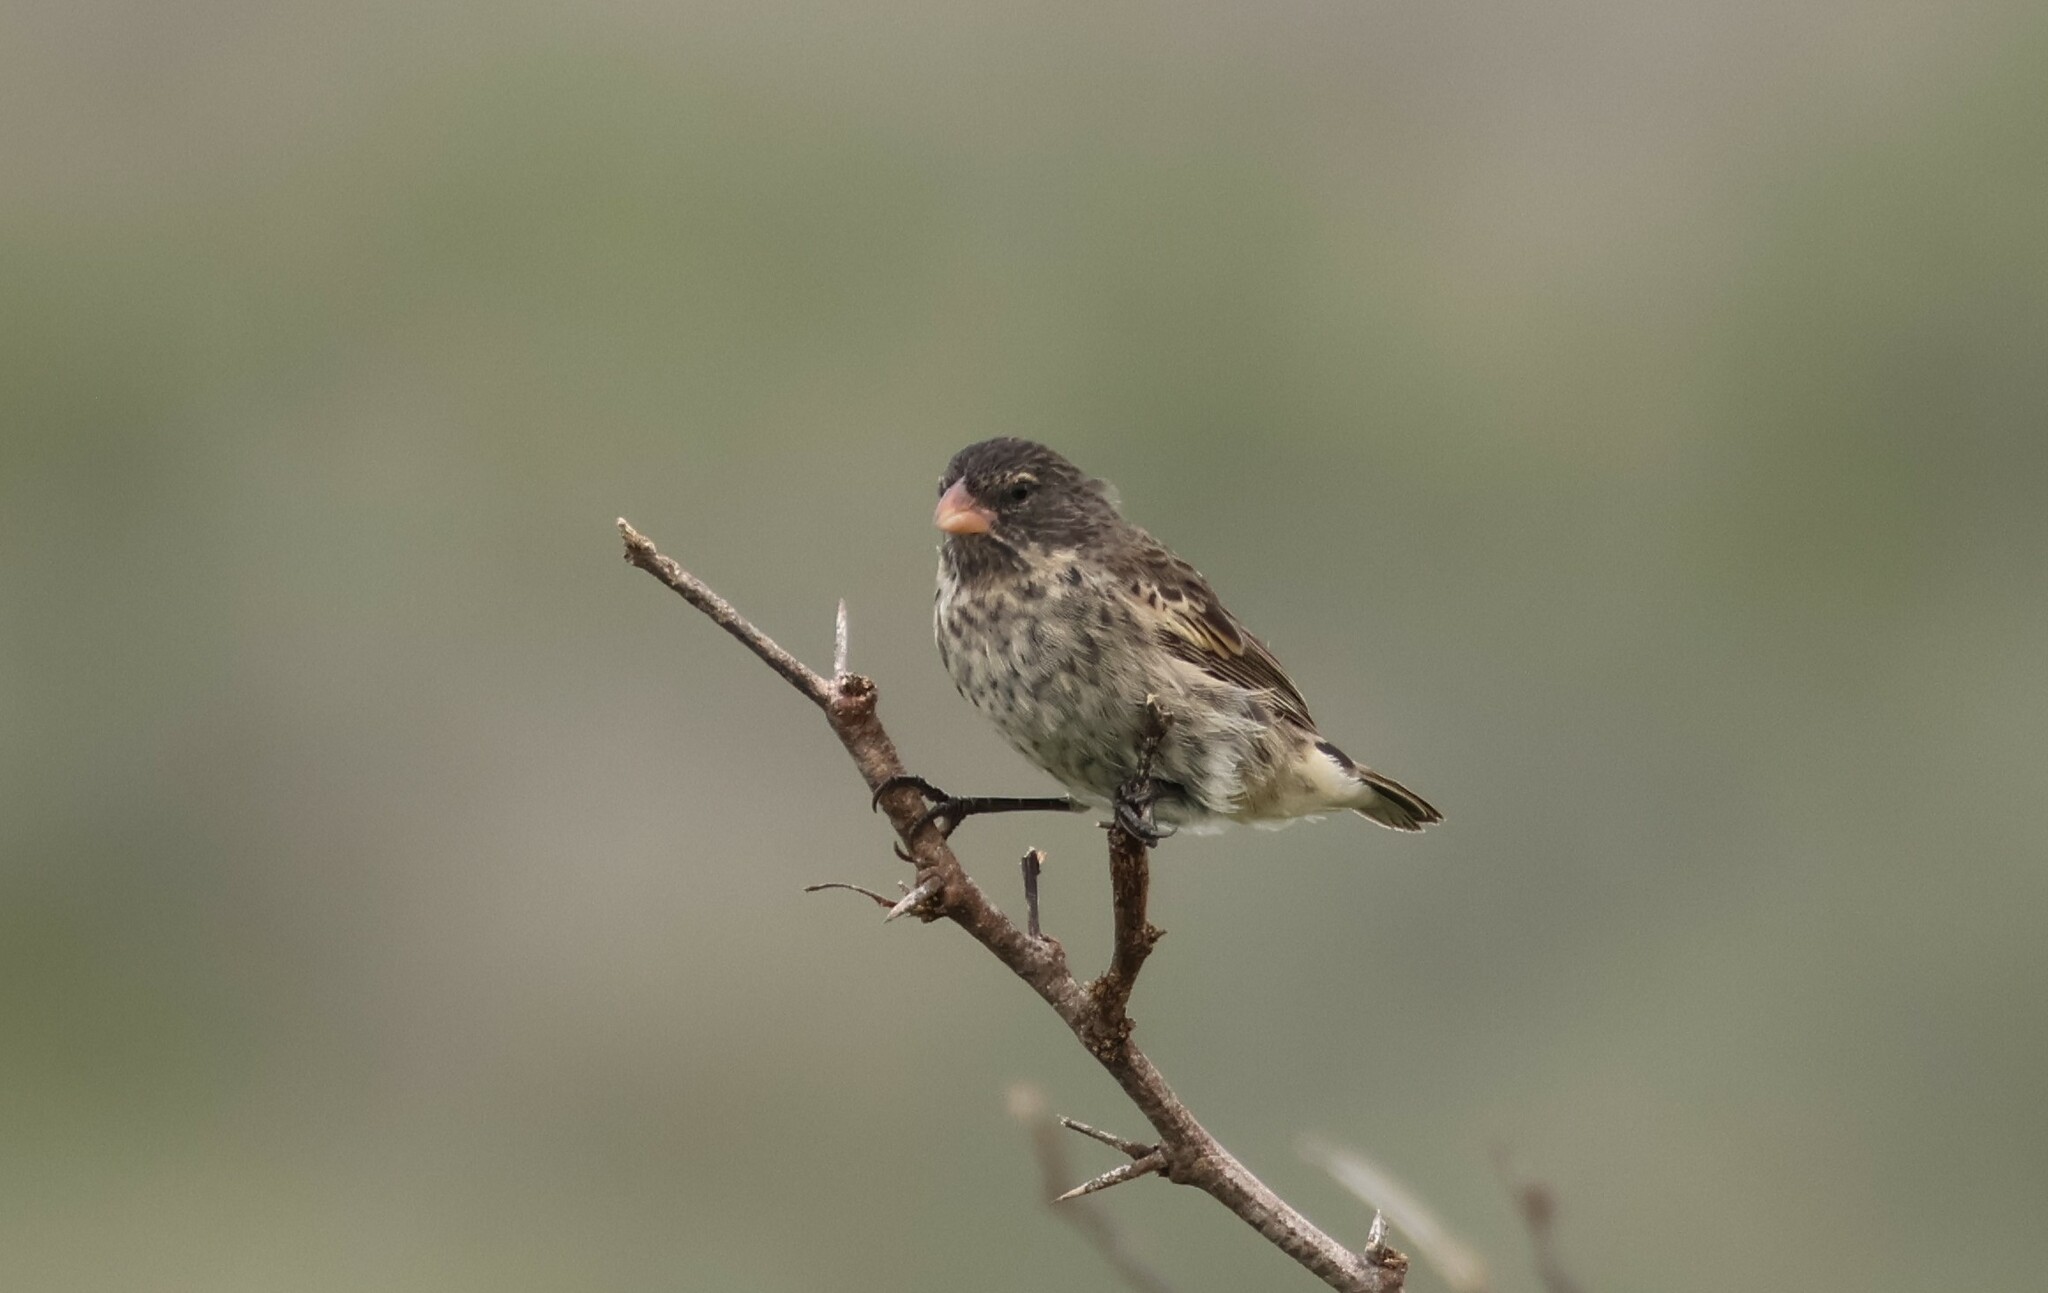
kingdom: Animalia
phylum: Chordata
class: Aves
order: Passeriformes
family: Thraupidae
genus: Geospiza
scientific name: Geospiza fuliginosa
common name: Small ground finch
